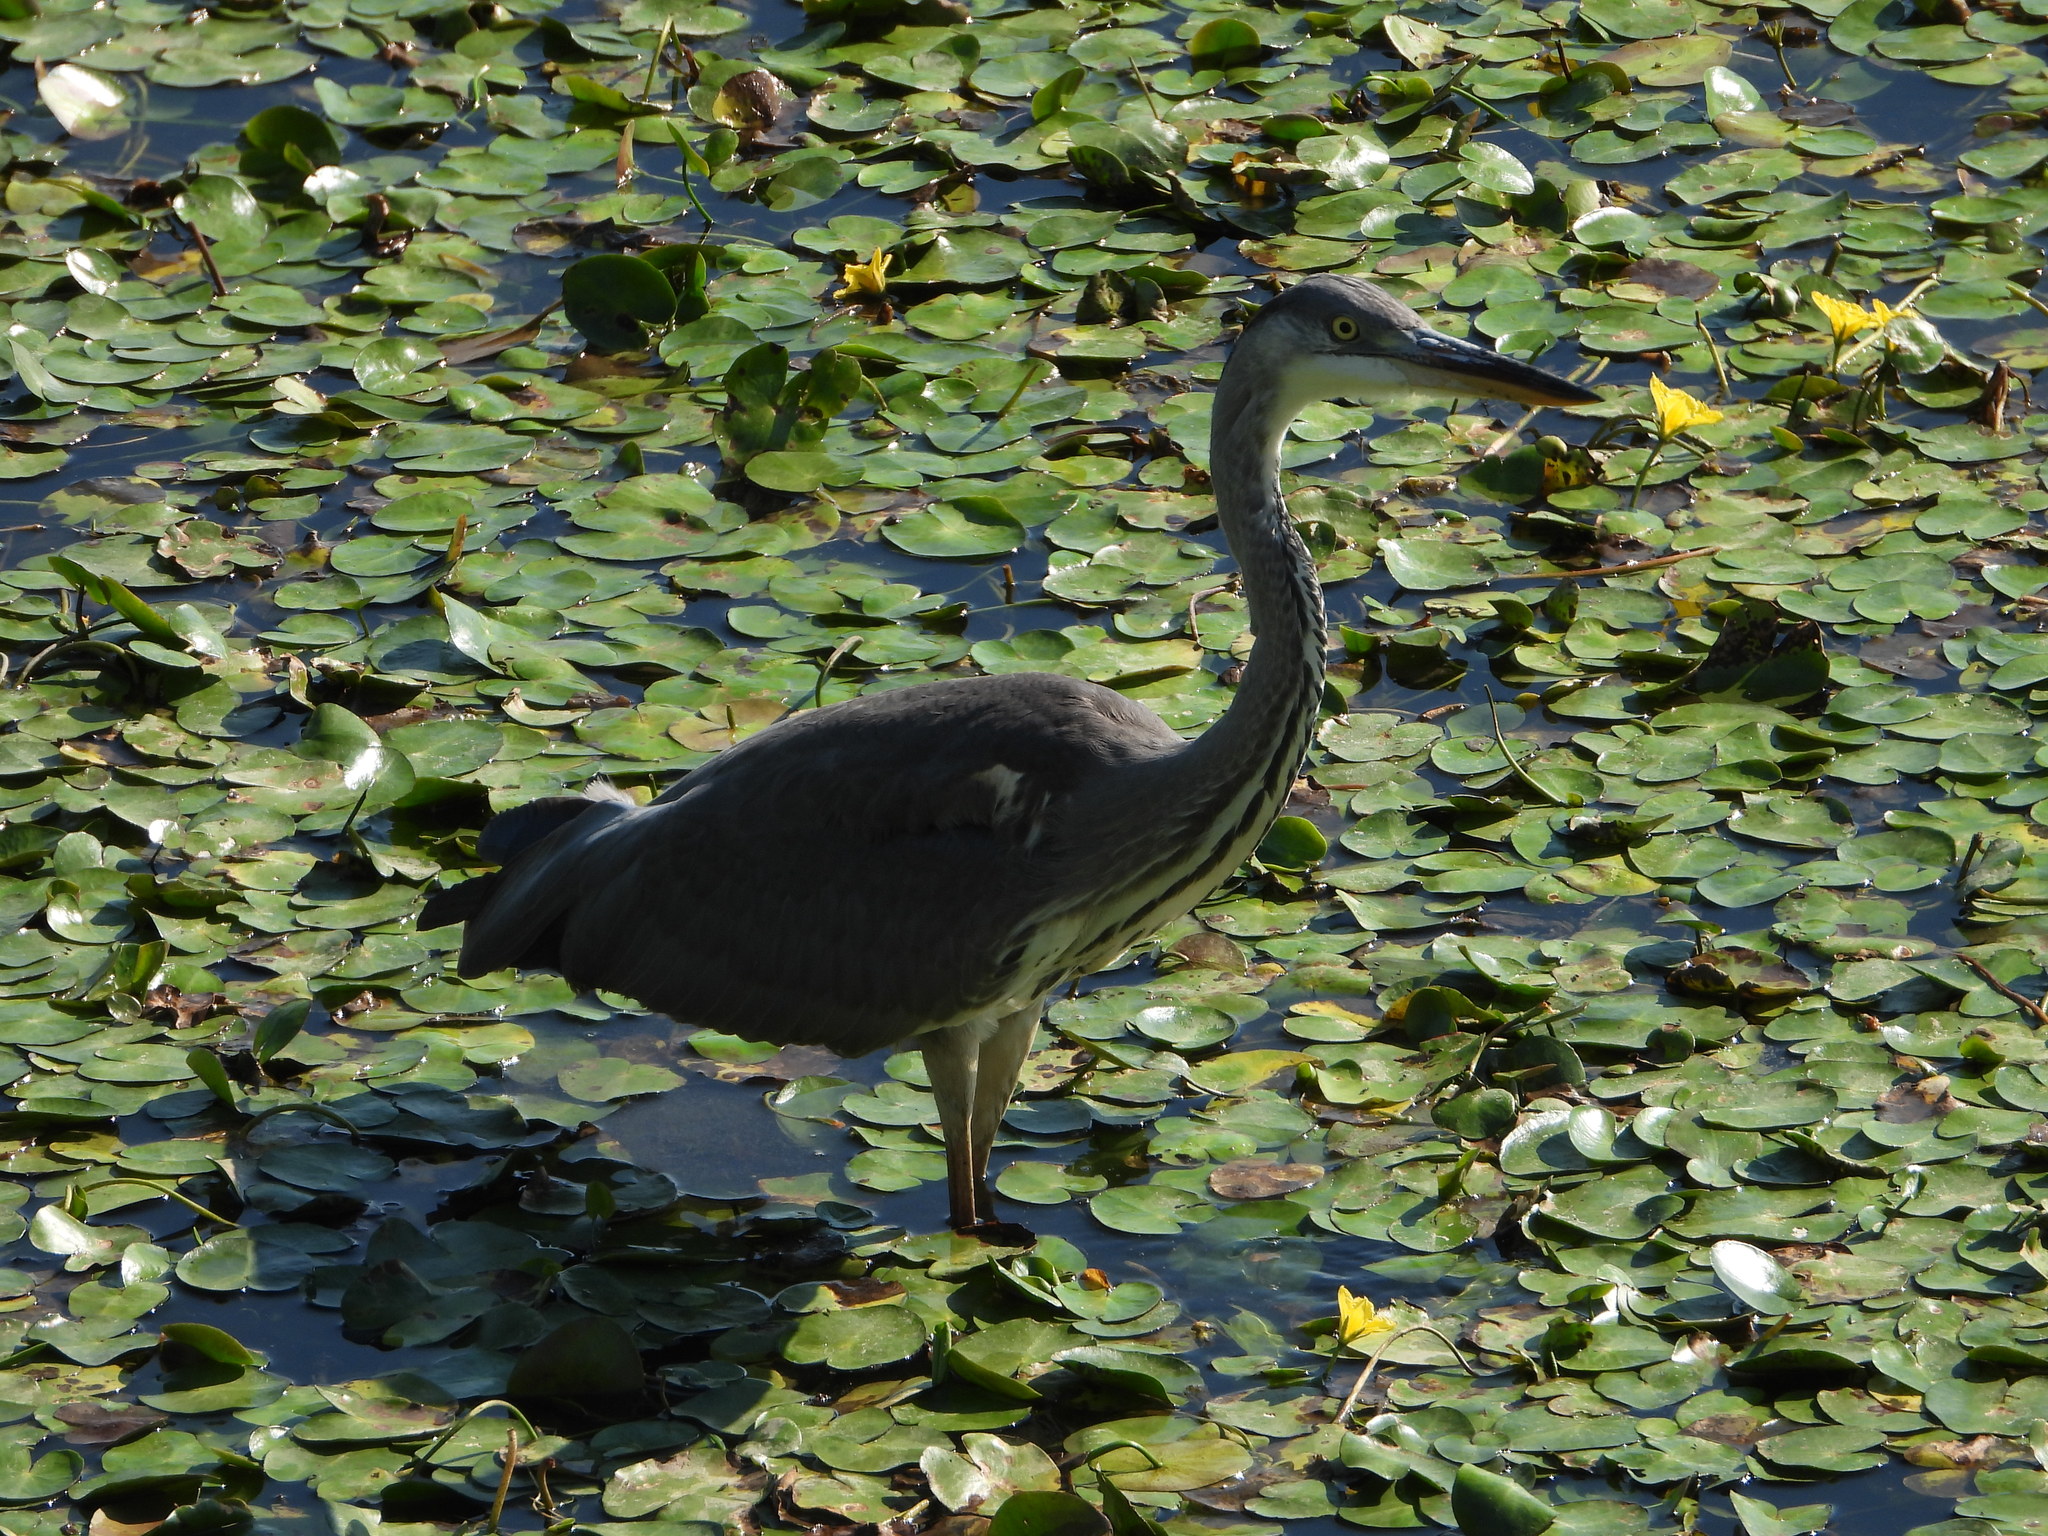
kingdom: Animalia
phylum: Chordata
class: Aves
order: Pelecaniformes
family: Ardeidae
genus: Ardea
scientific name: Ardea cinerea
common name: Grey heron
